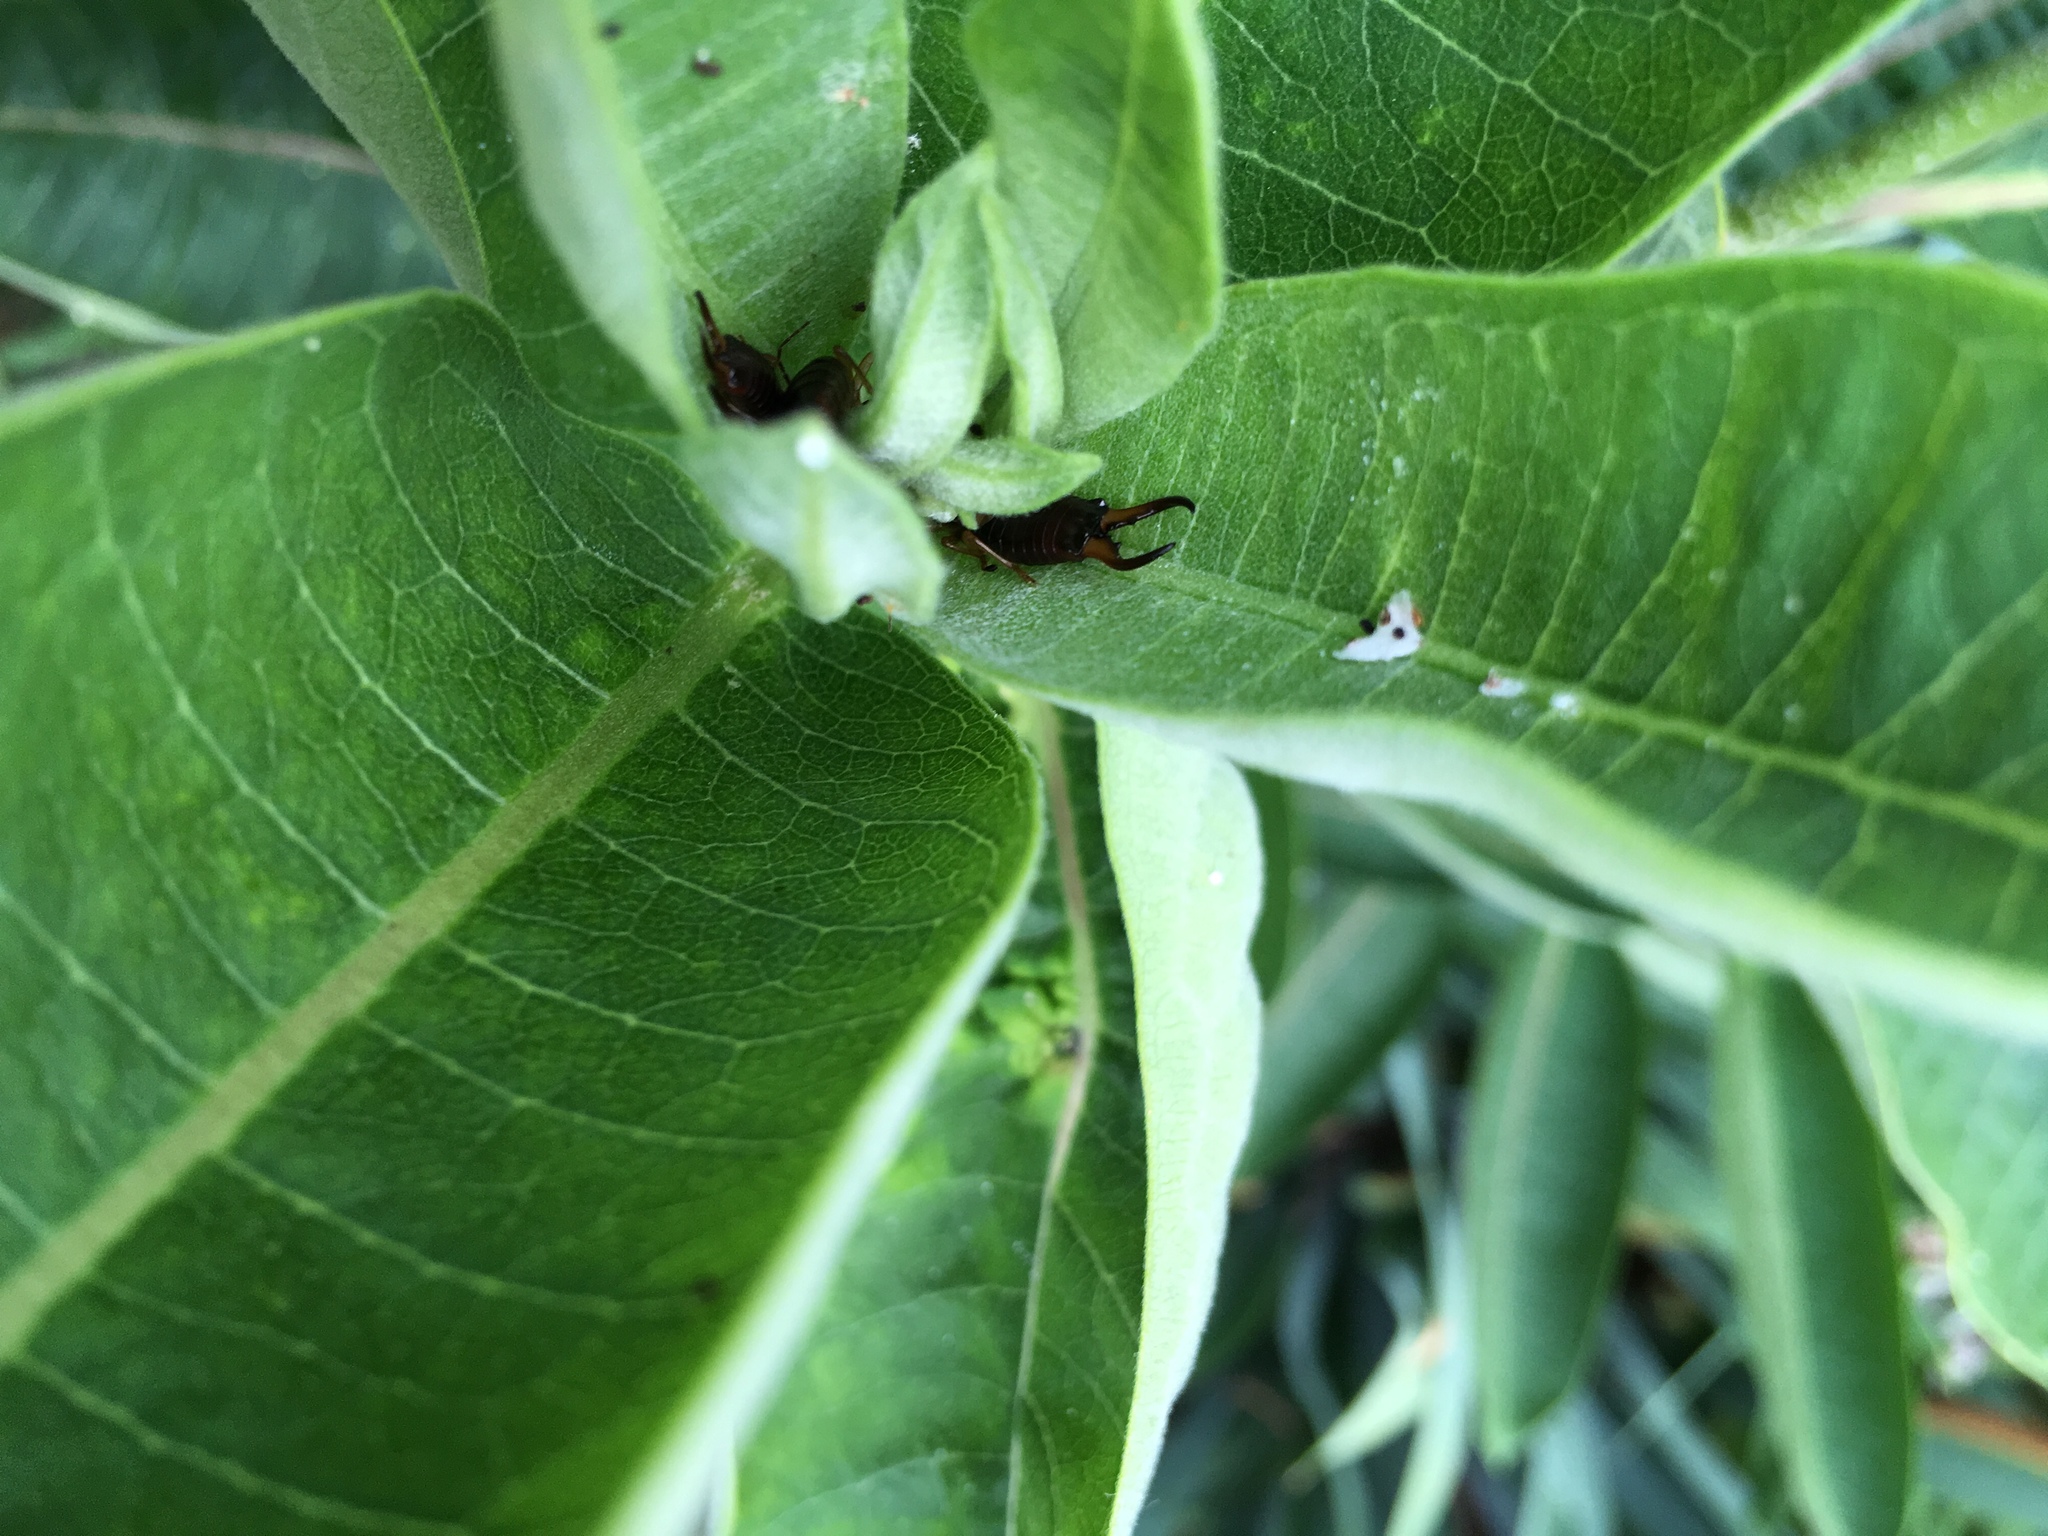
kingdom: Animalia
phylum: Arthropoda
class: Insecta
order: Dermaptera
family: Forficulidae
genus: Forficula
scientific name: Forficula
